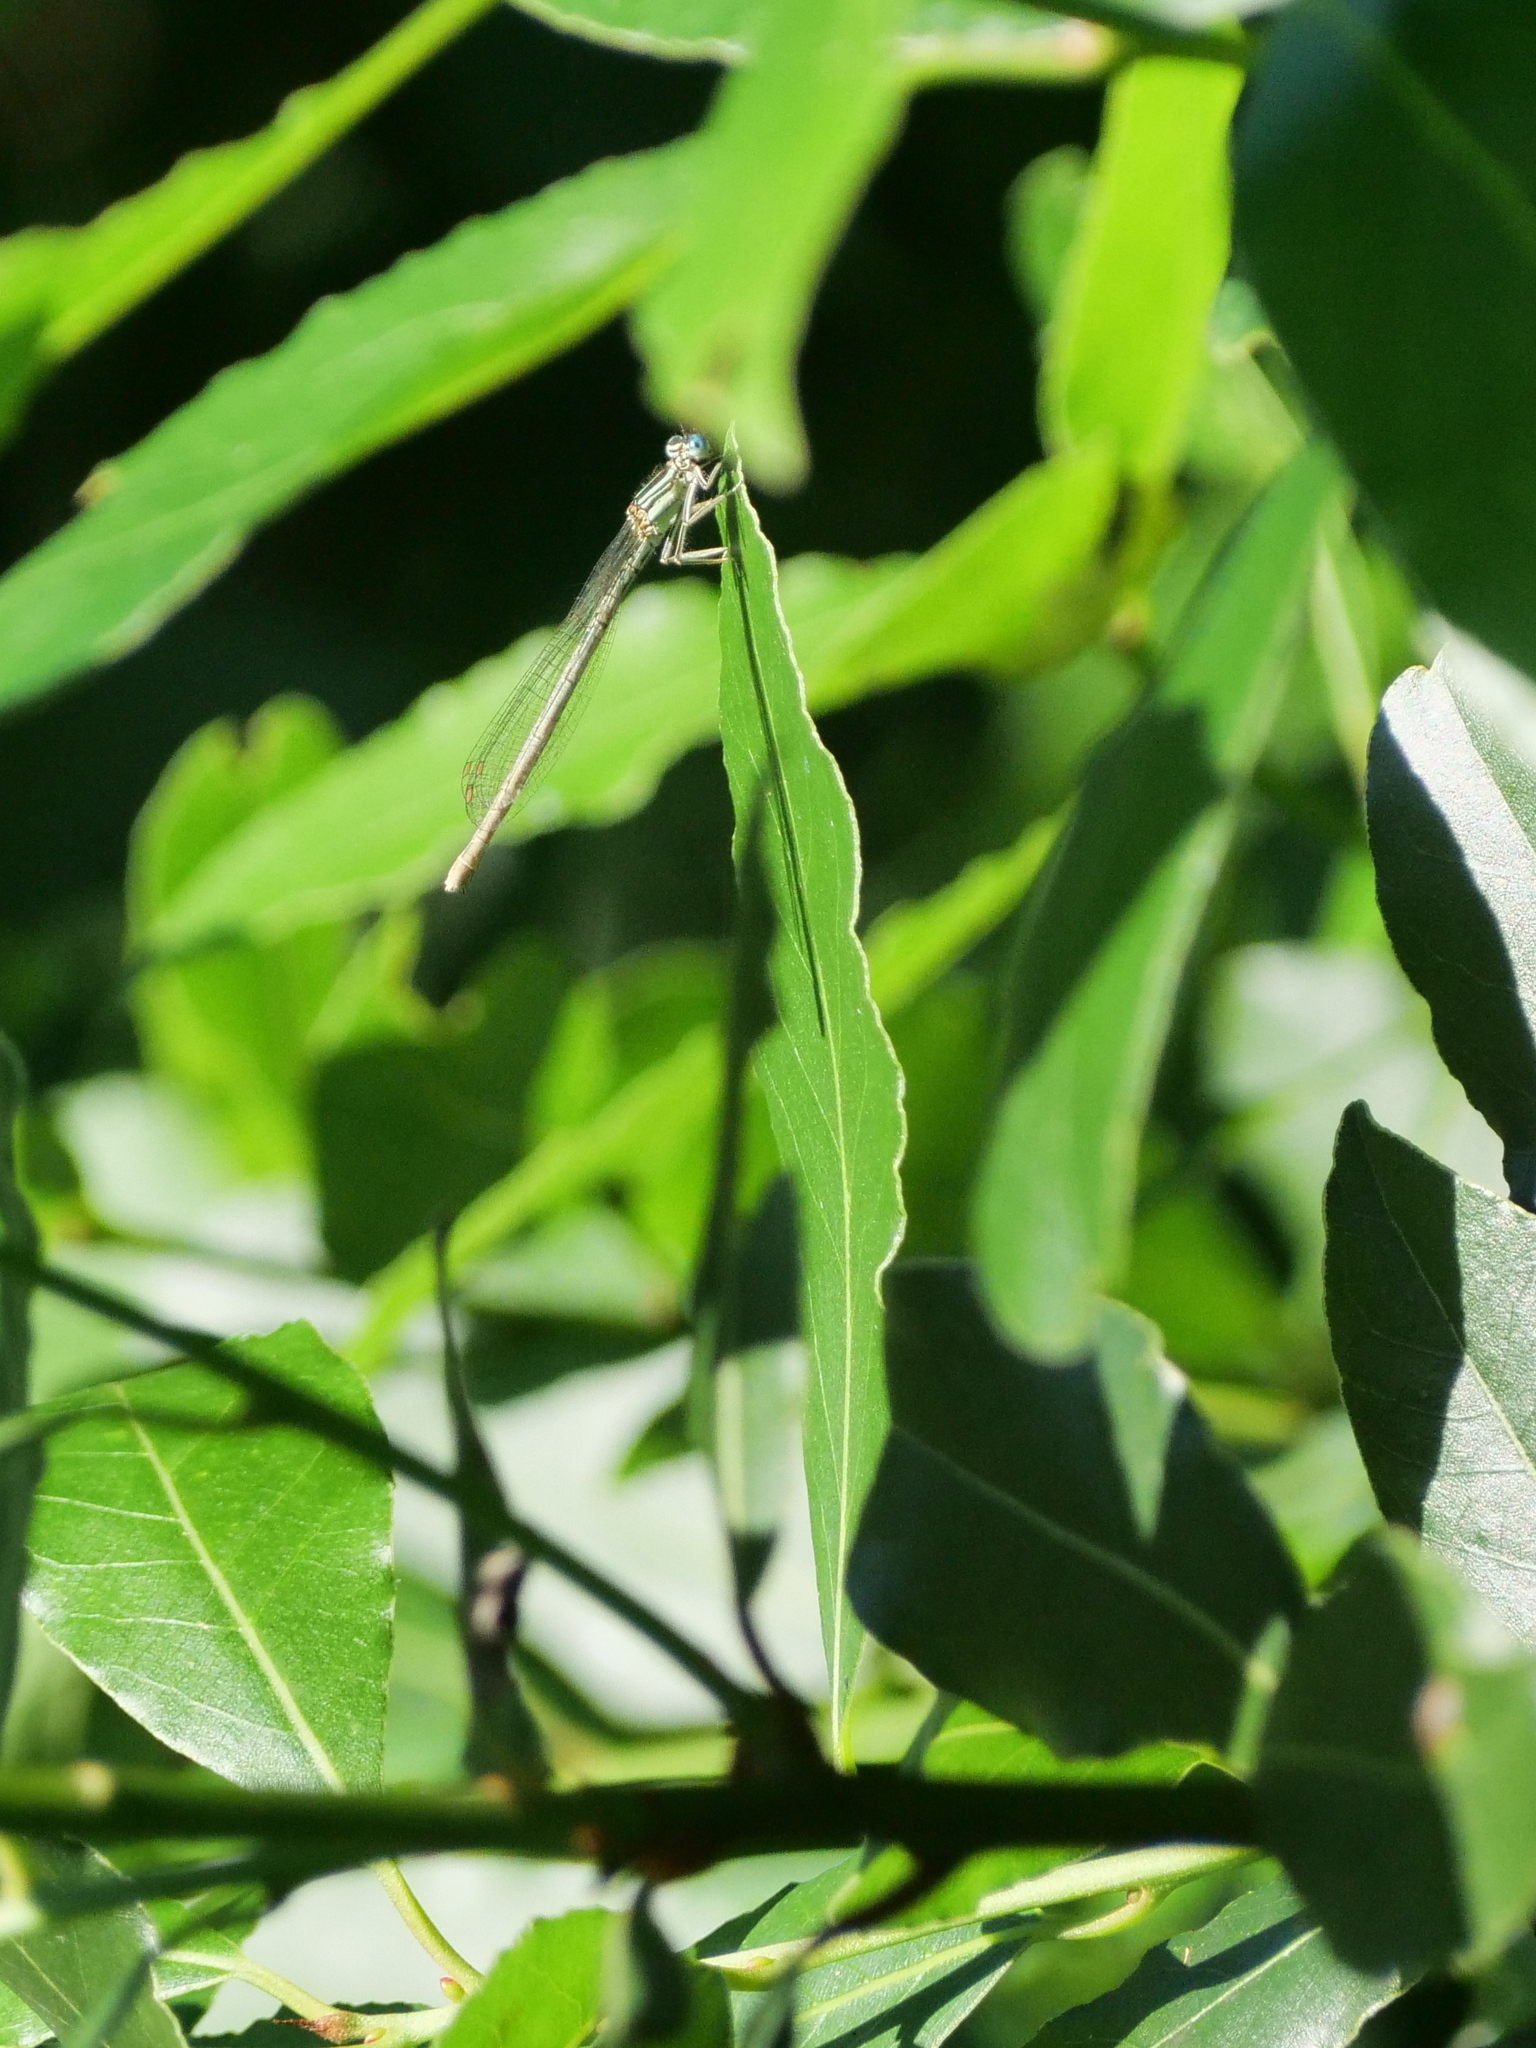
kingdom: Animalia
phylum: Arthropoda
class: Insecta
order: Odonata
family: Platycnemididae
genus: Platycnemis
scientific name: Platycnemis pennipes
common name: White-legged damselfly
